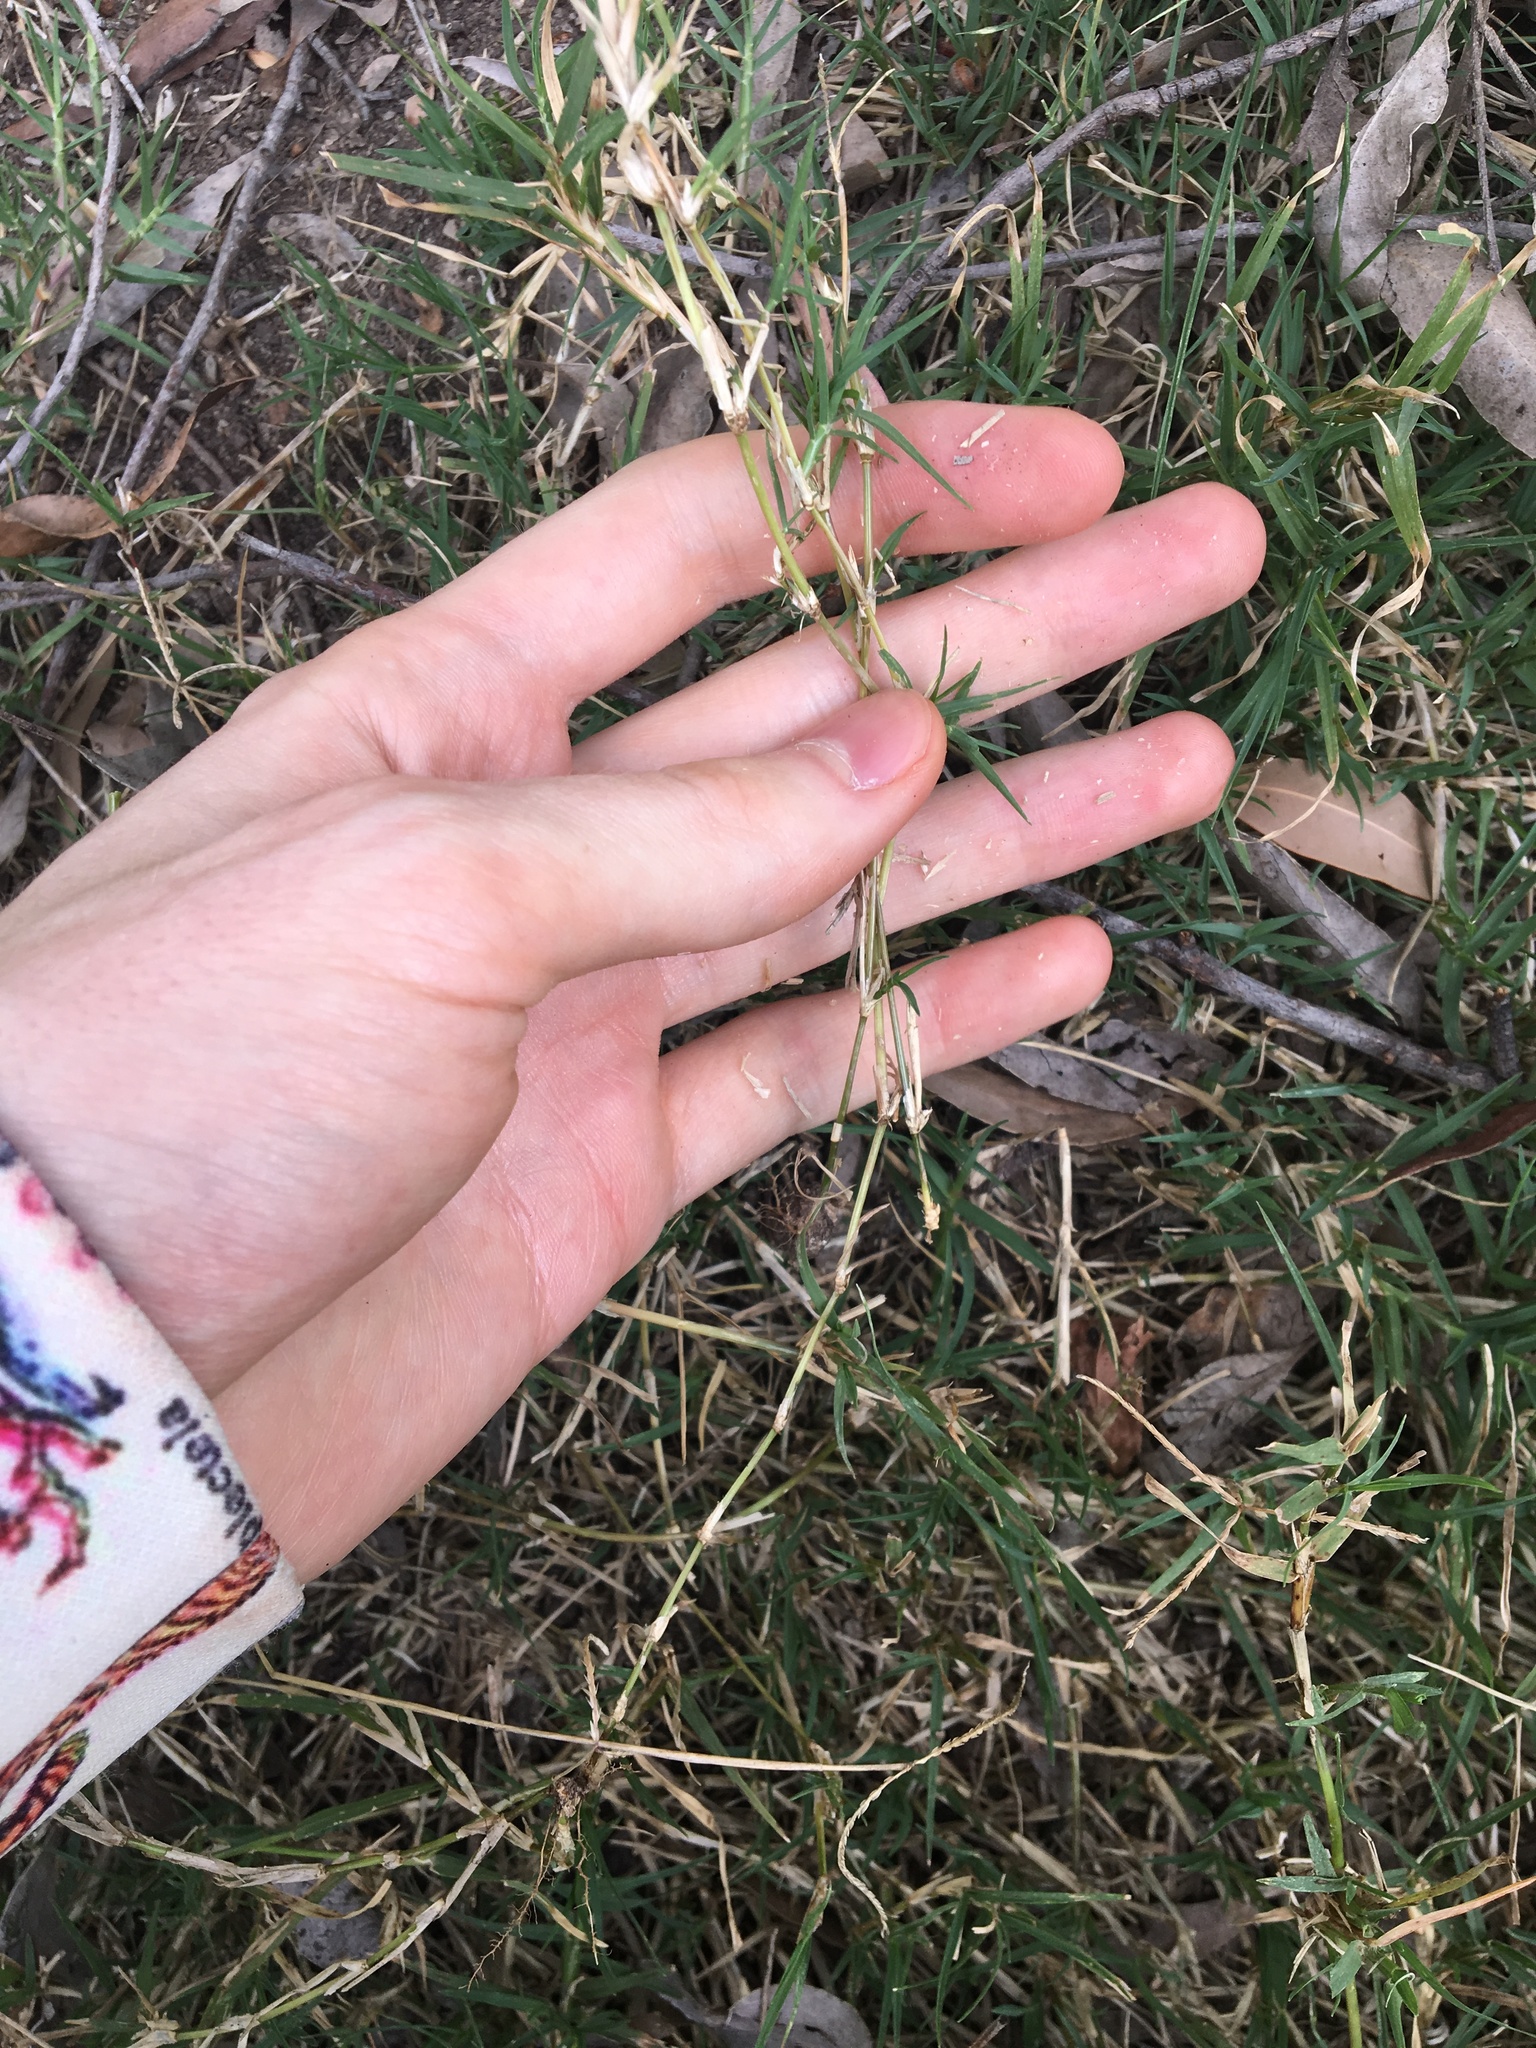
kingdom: Plantae
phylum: Tracheophyta
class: Liliopsida
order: Poales
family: Poaceae
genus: Cynodon
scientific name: Cynodon dactylon
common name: Bermuda grass
